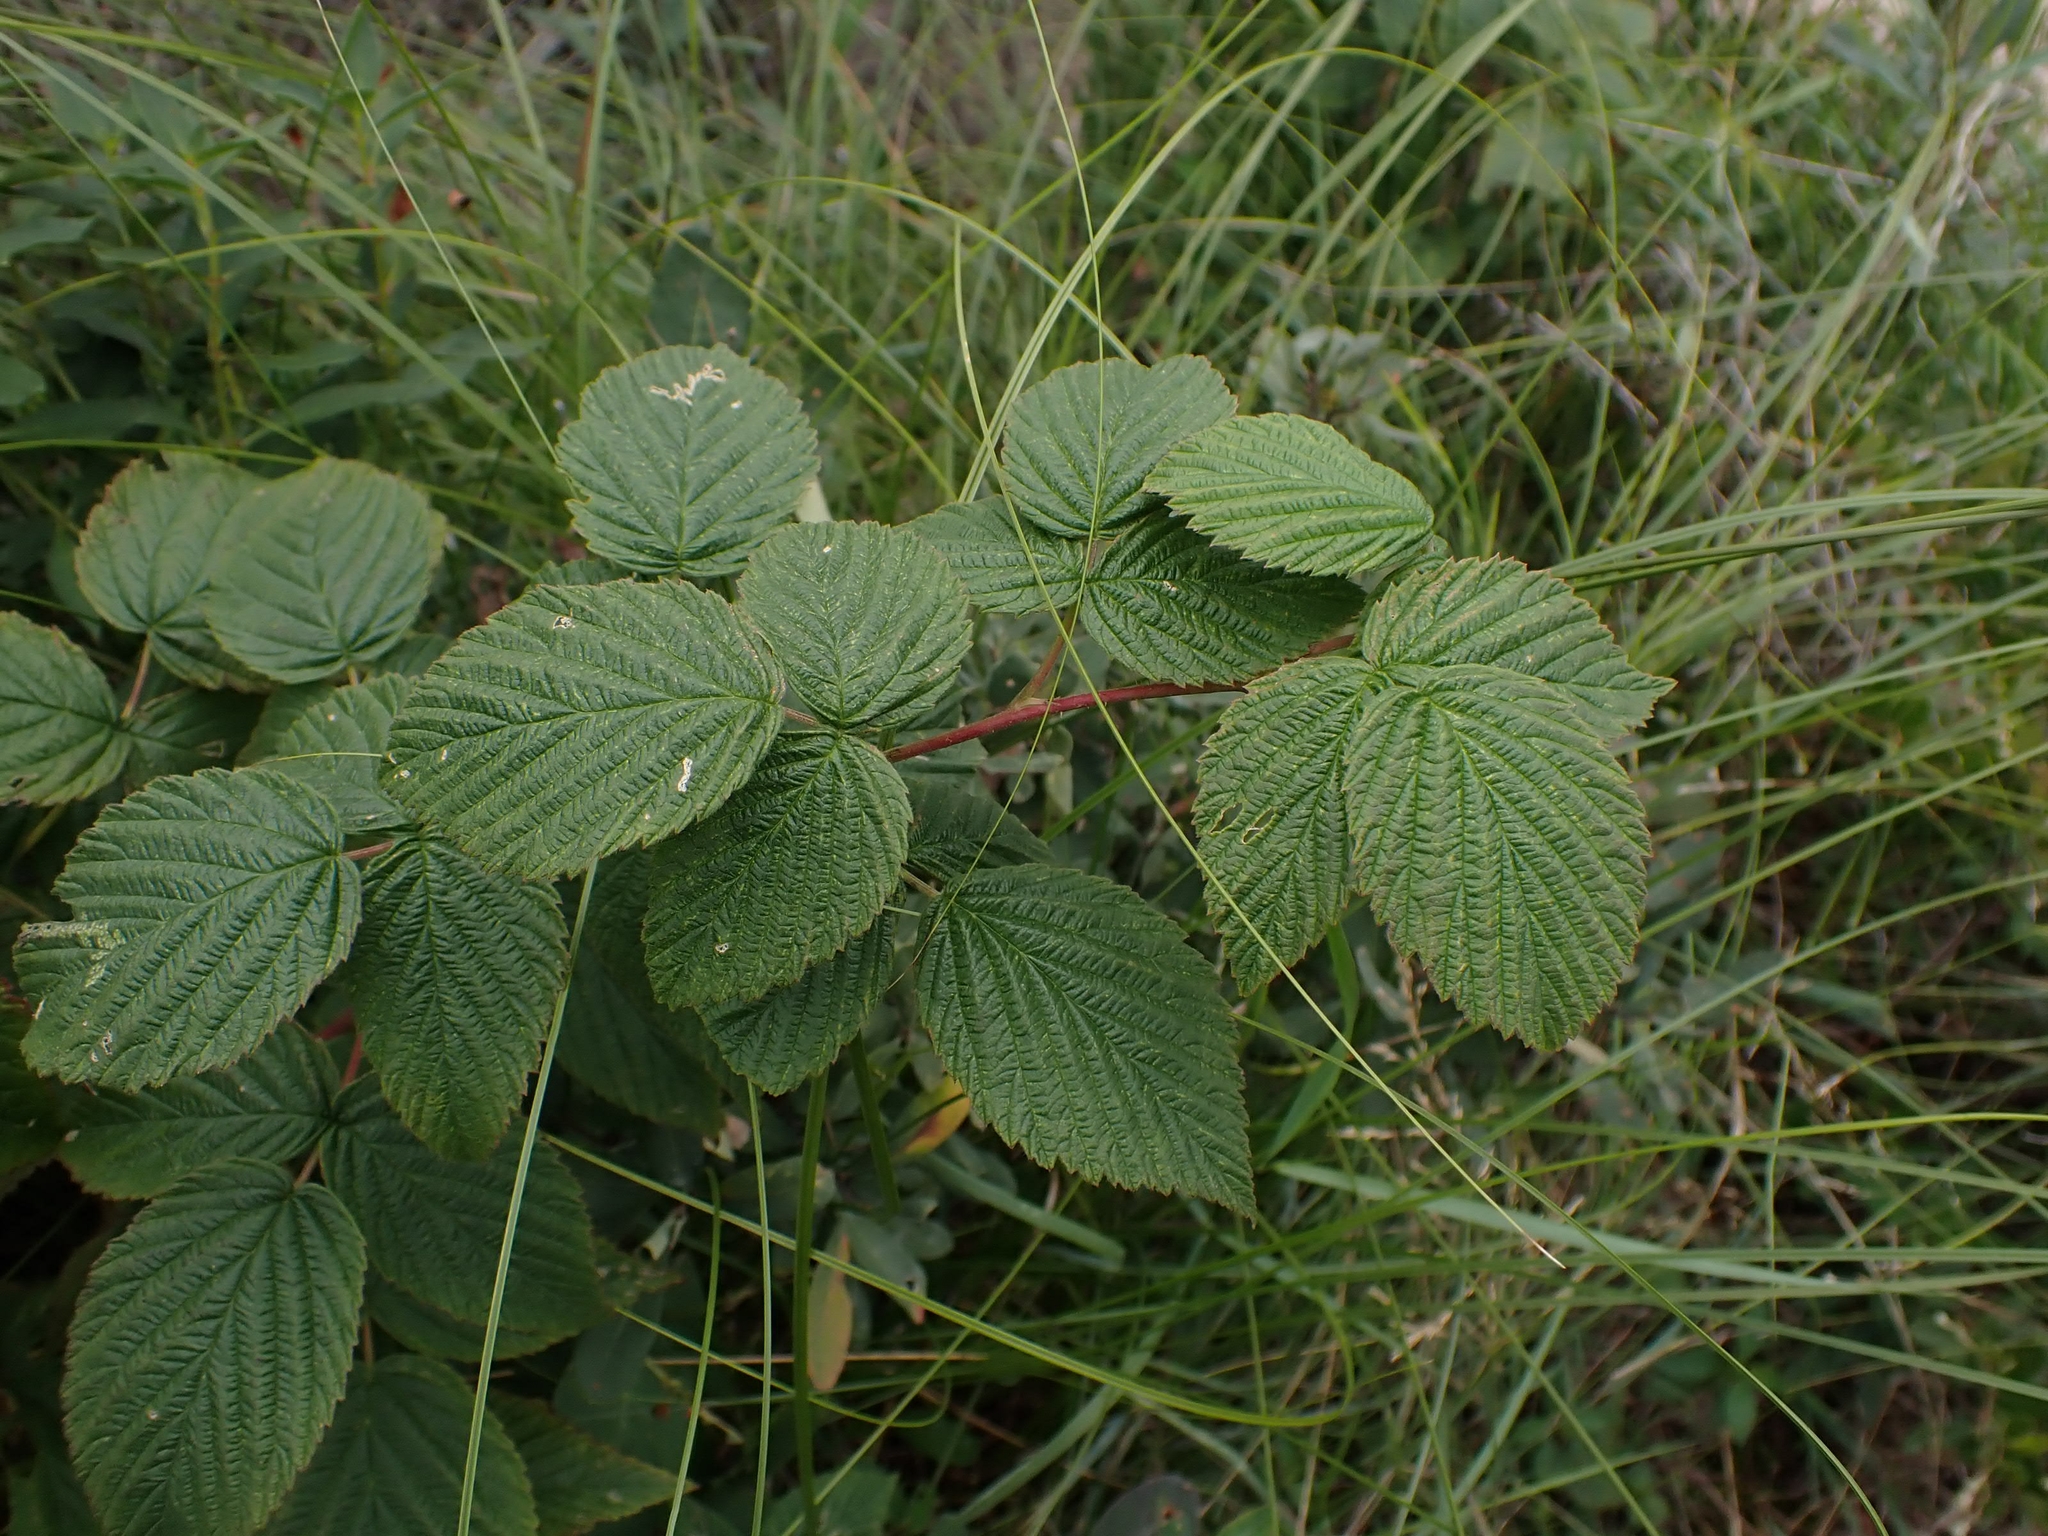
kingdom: Plantae
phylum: Tracheophyta
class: Magnoliopsida
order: Rosales
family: Rosaceae
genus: Rubus
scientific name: Rubus idaeus
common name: Raspberry
